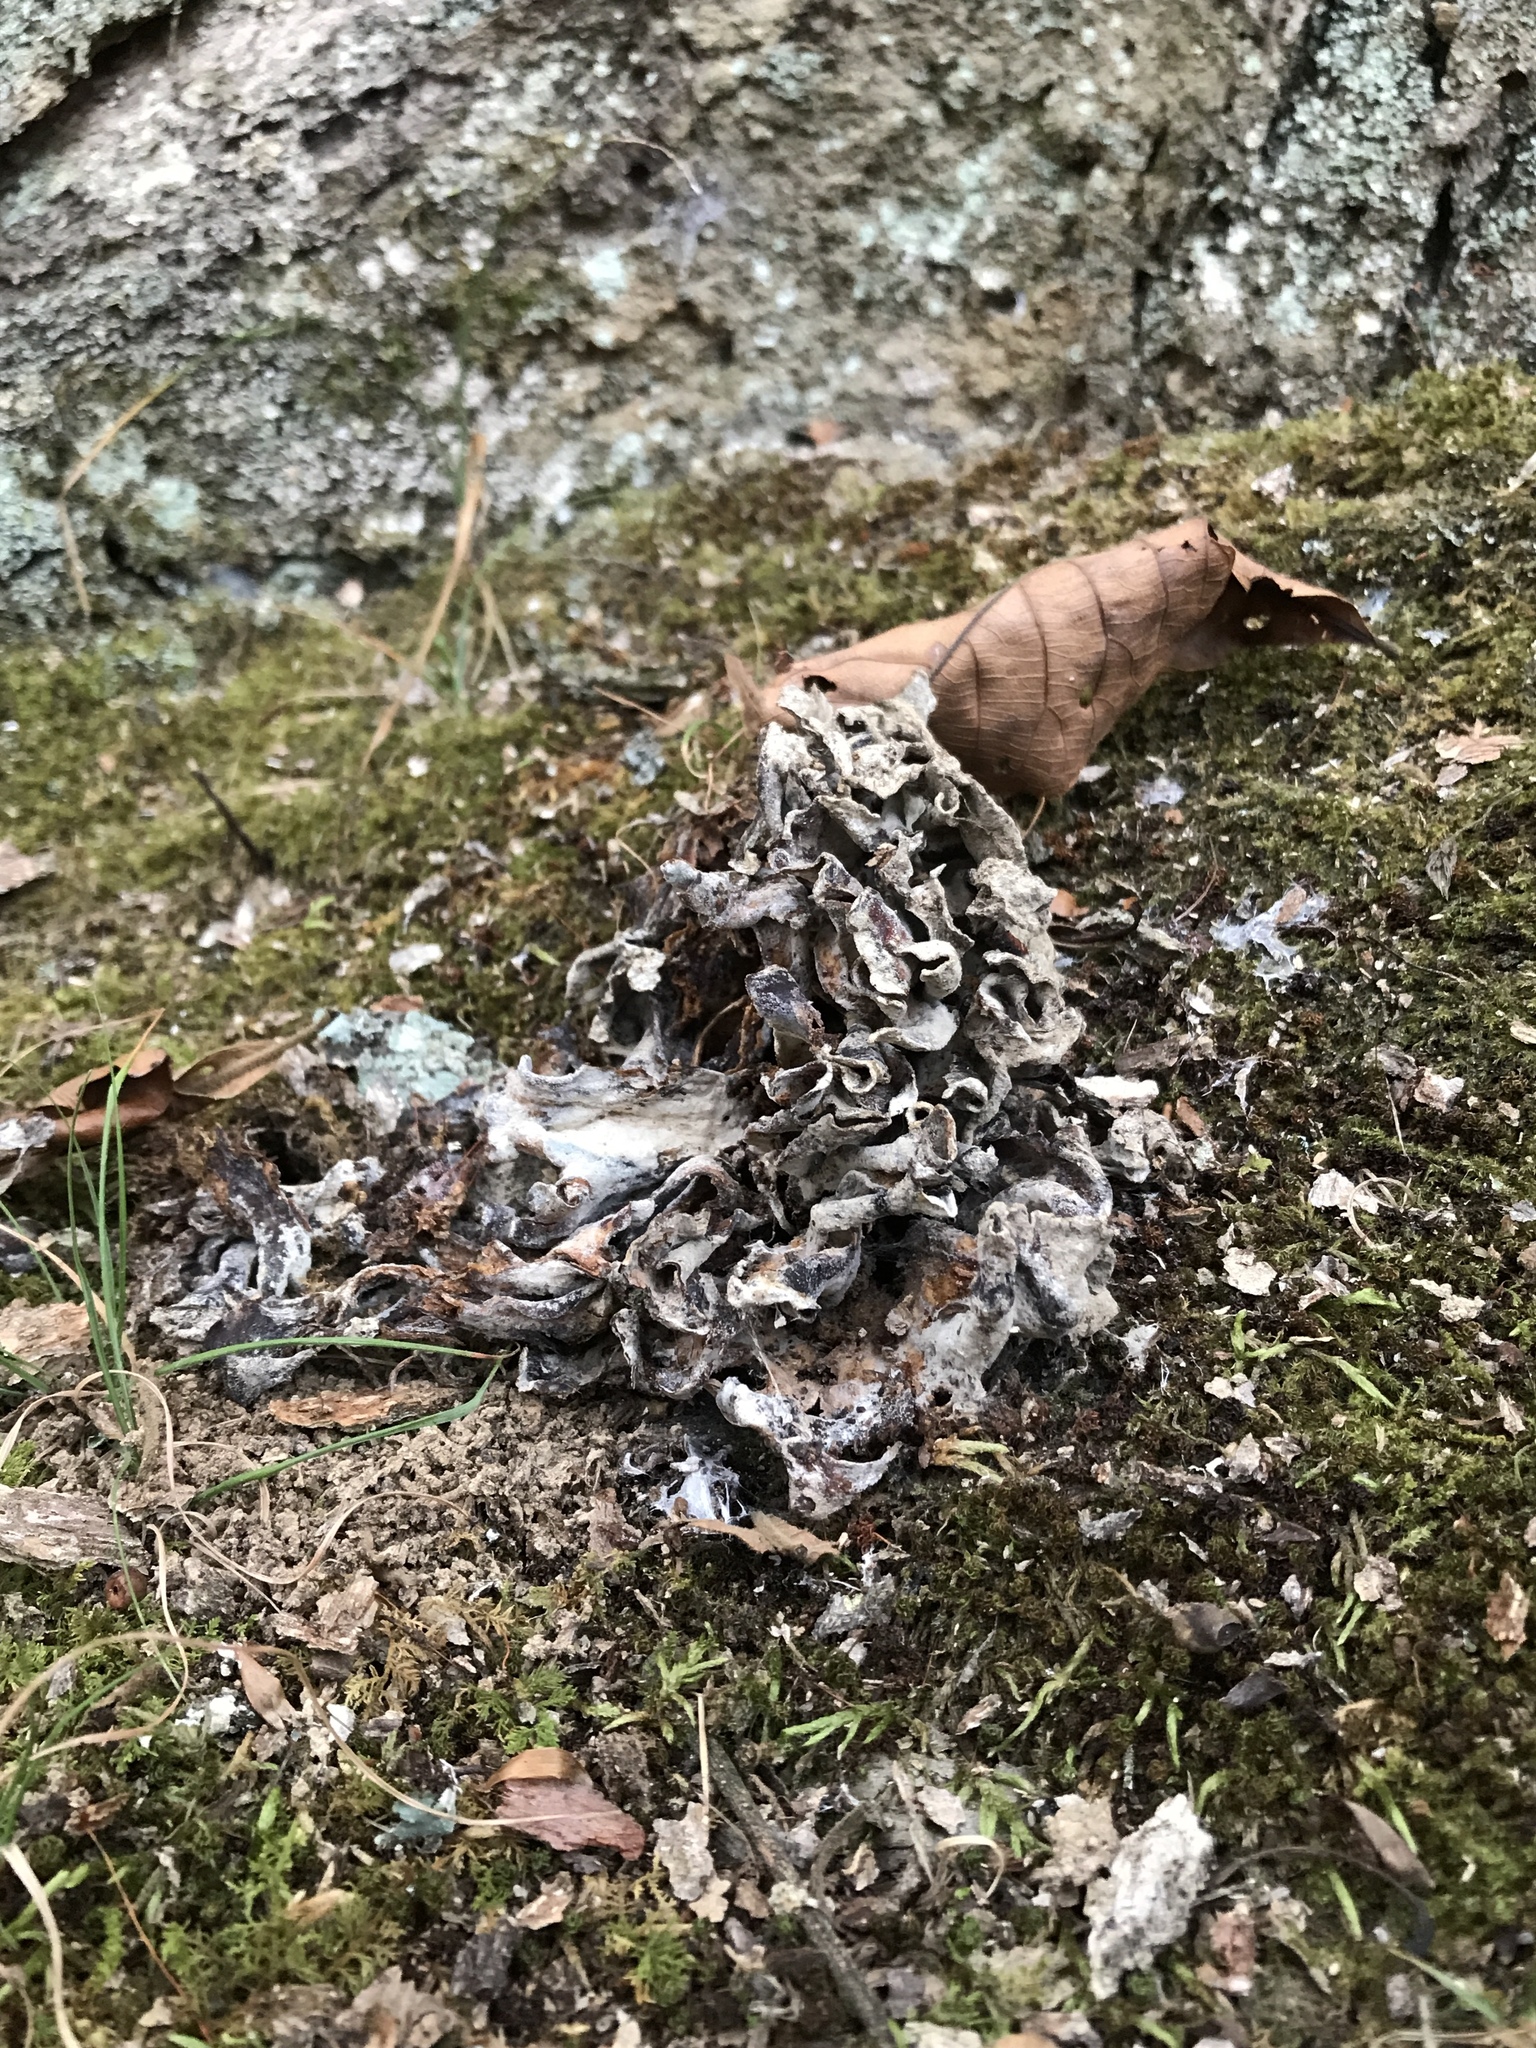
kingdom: Fungi
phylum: Basidiomycota
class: Agaricomycetes
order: Polyporales
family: Sparassidaceae
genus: Sparassis
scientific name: Sparassis spathulata
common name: Eastern cauliflower mushroom
